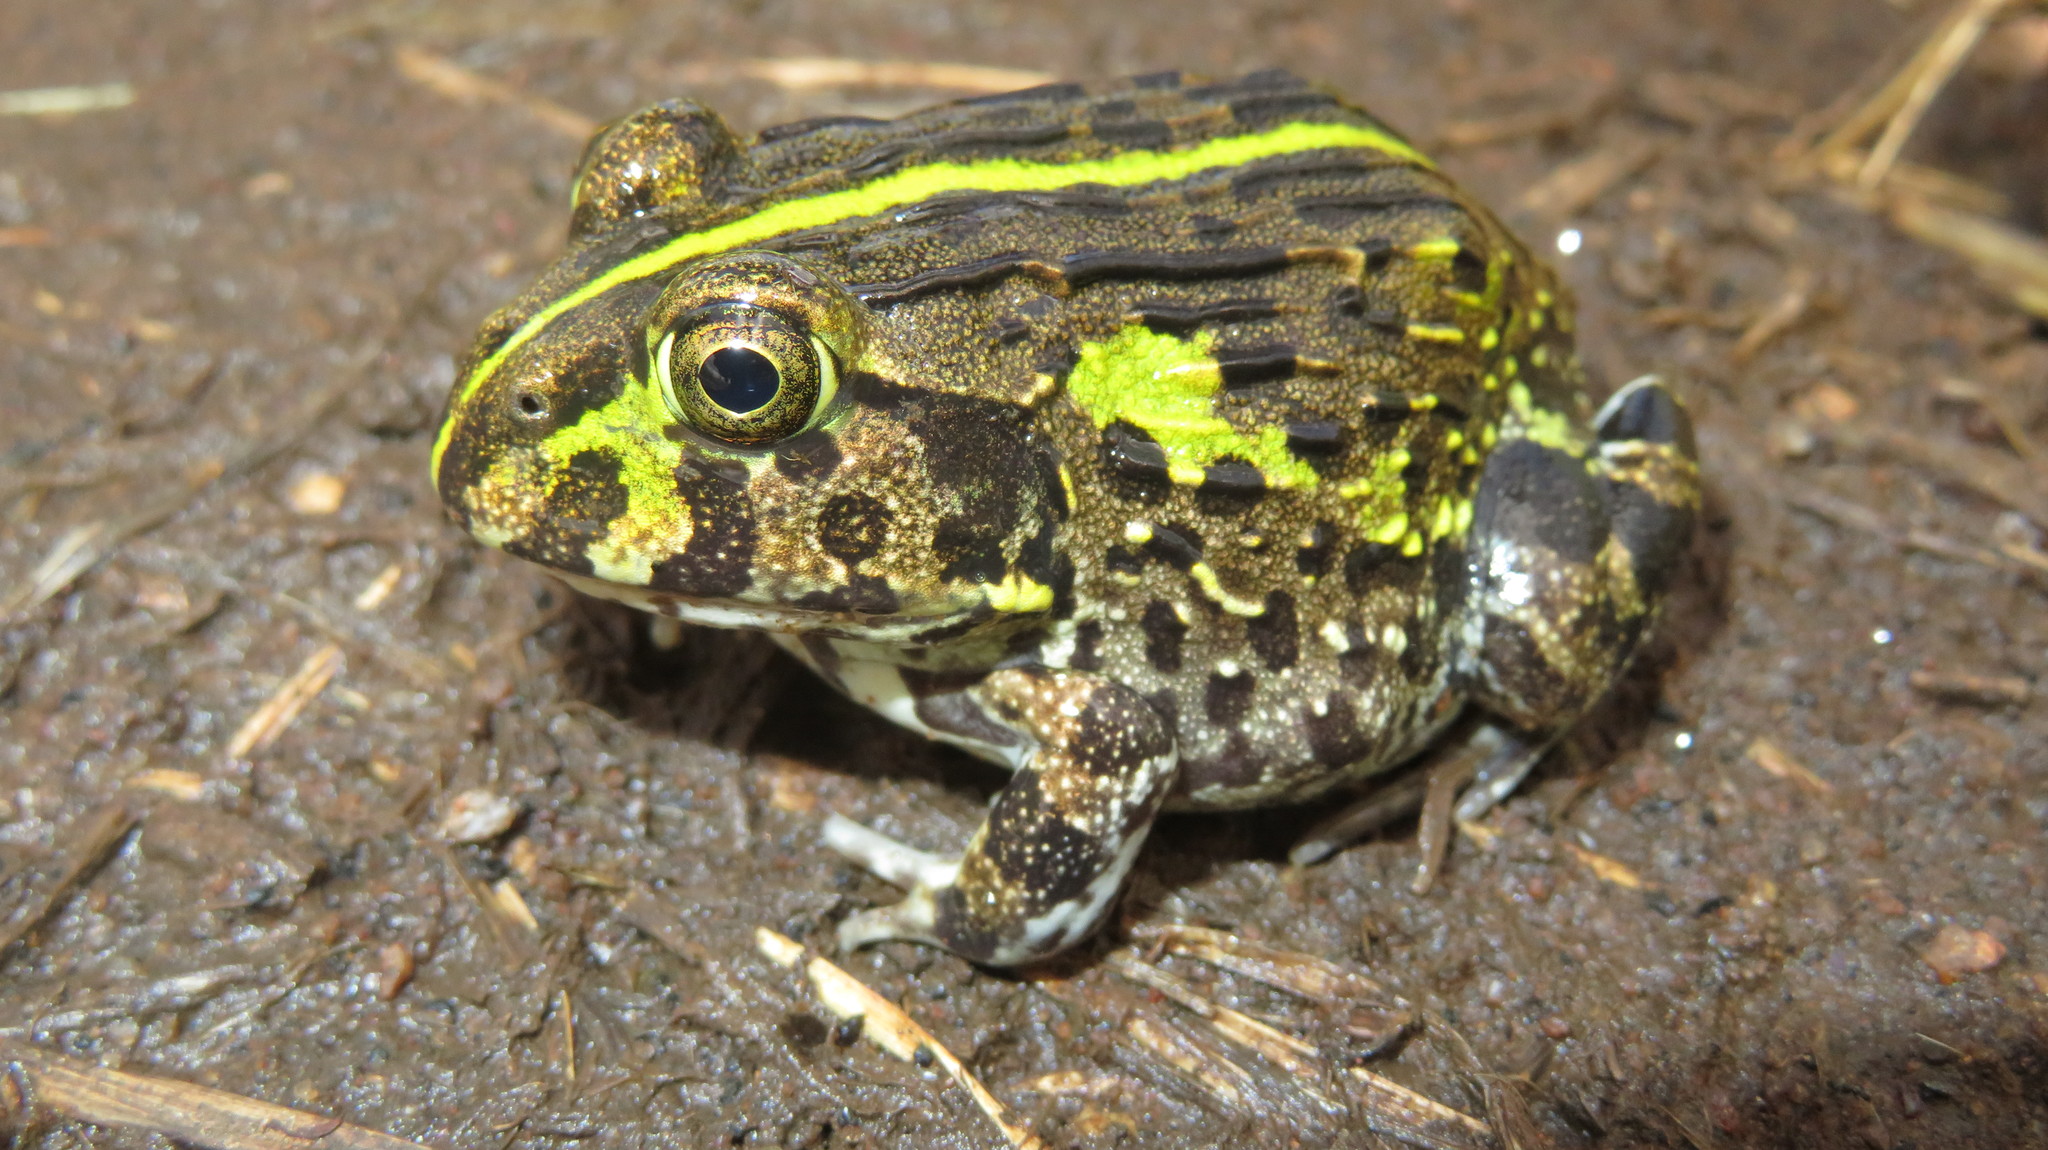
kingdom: Animalia
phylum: Chordata
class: Amphibia
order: Anura
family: Pyxicephalidae
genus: Pyxicephalus
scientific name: Pyxicephalus edulis
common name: Peter's bullfrog
